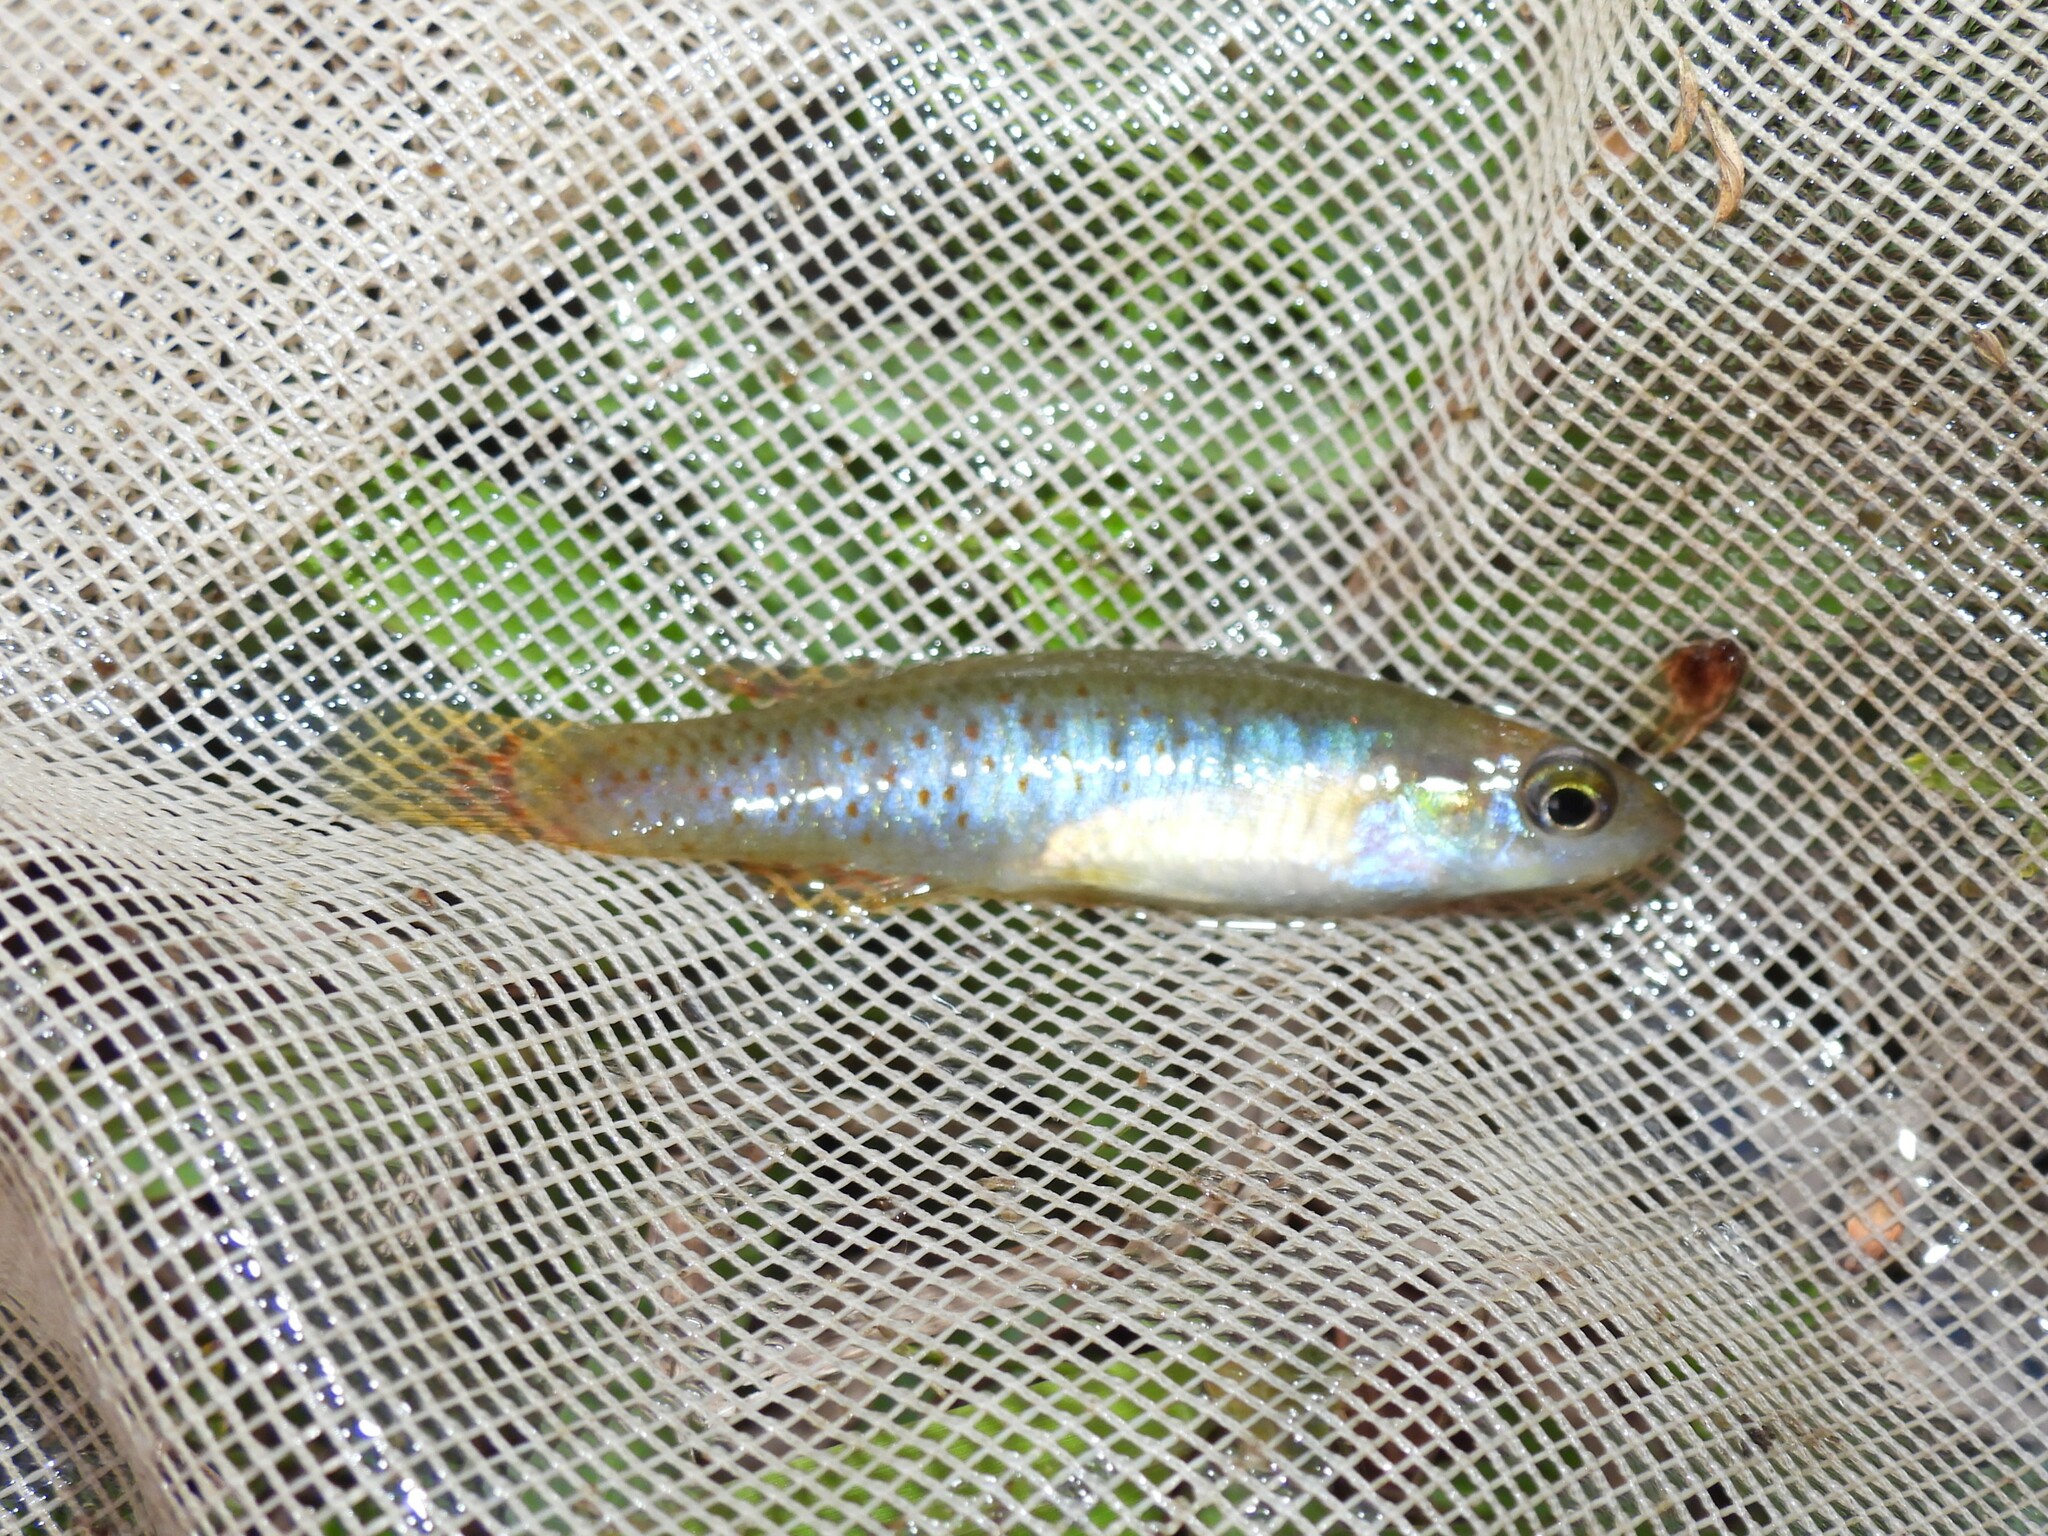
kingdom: Animalia
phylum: Chordata
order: Cyprinodontiformes
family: Fundulidae
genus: Fundulus
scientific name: Fundulus chrysotus
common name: Golden topminnow
